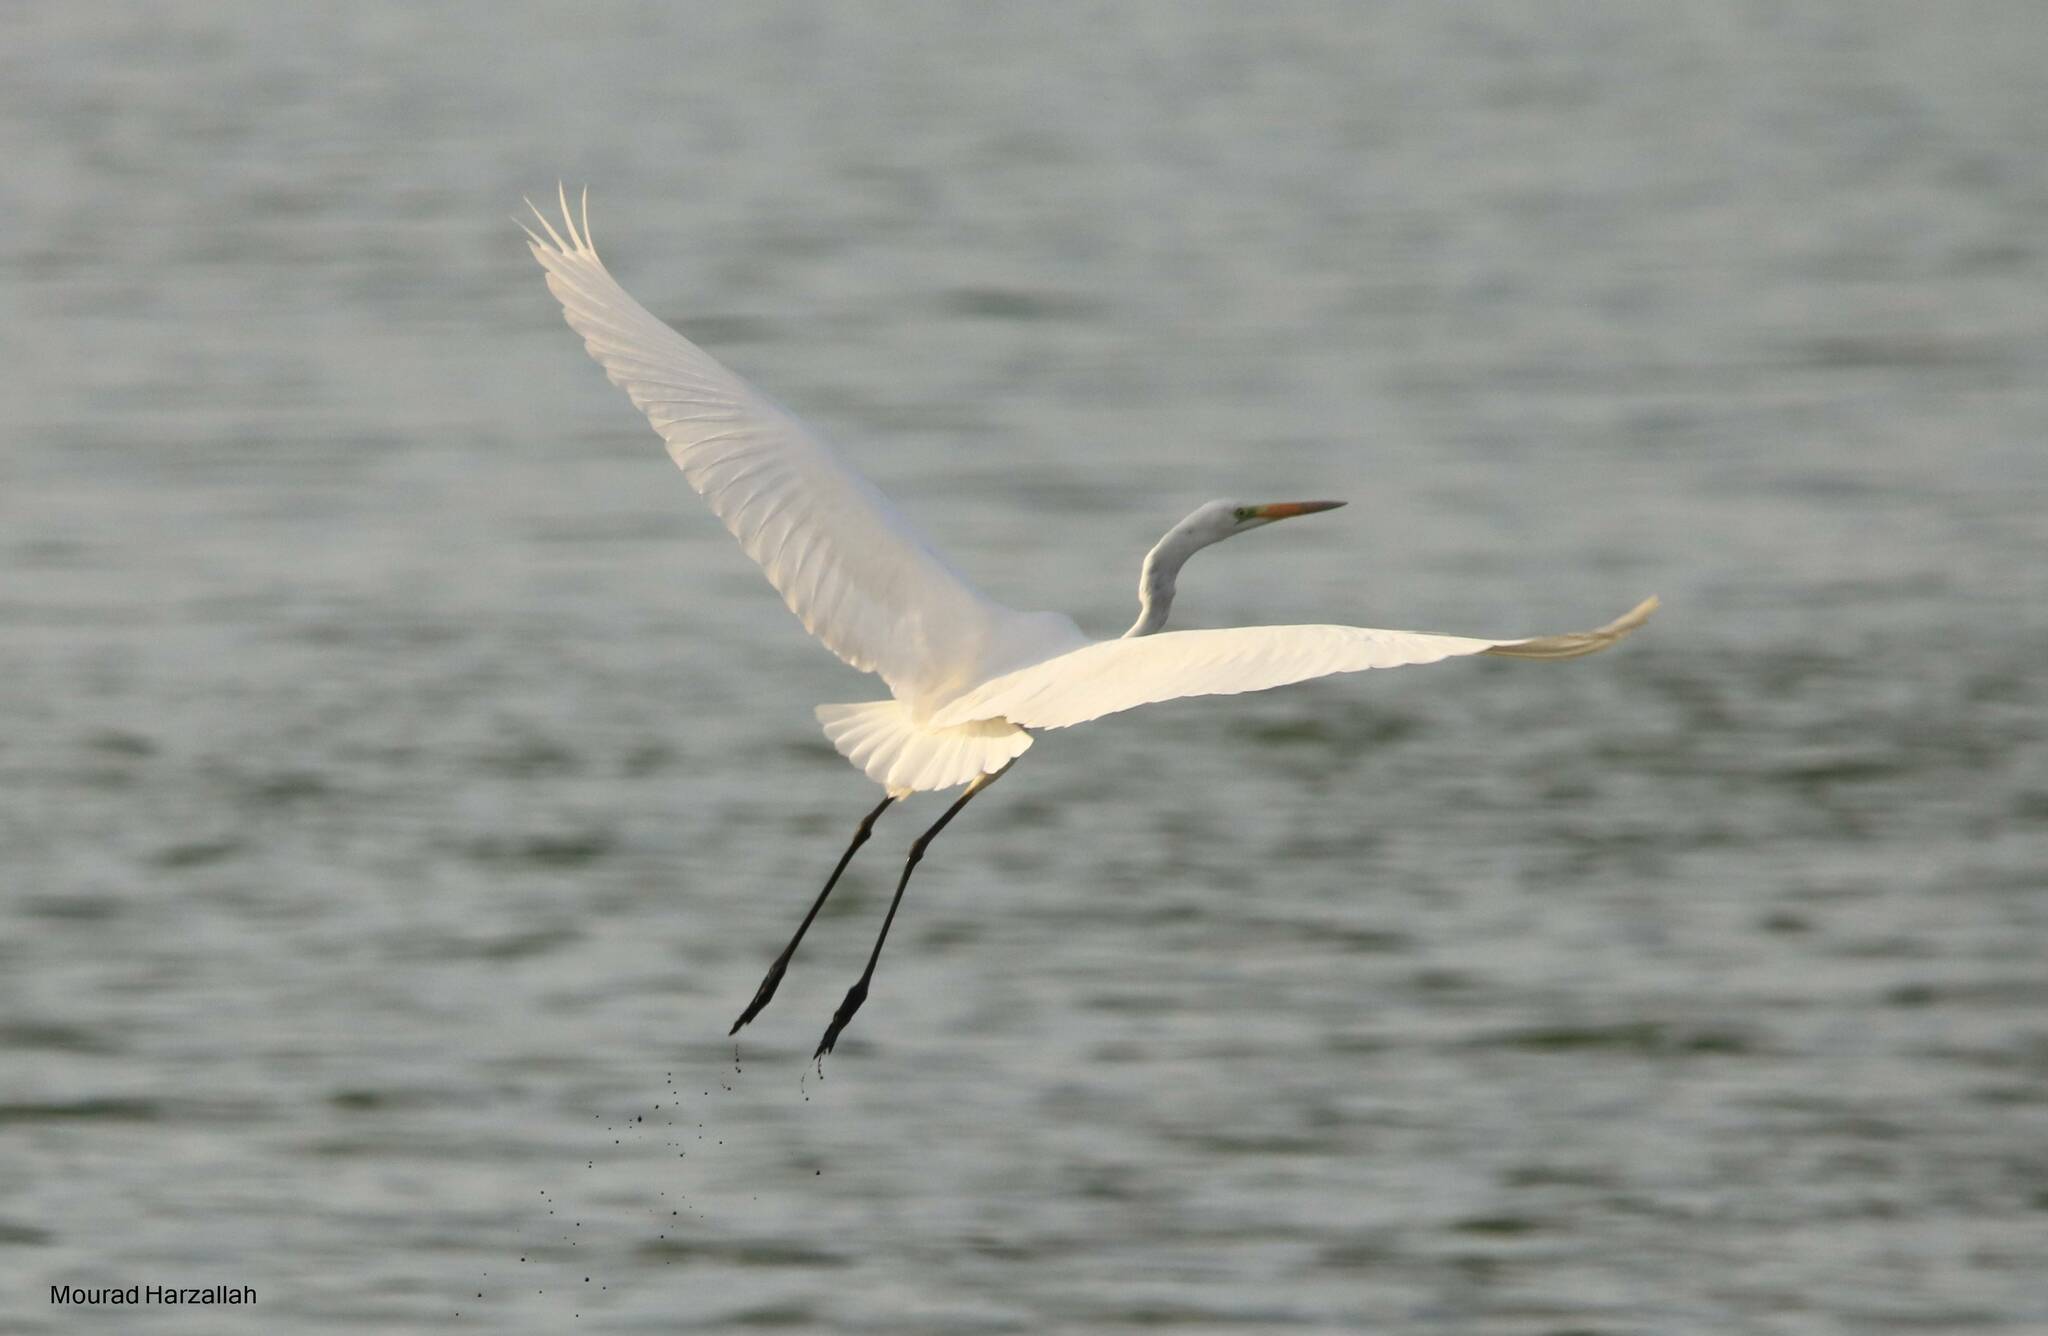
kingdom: Animalia
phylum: Chordata
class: Aves
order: Pelecaniformes
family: Ardeidae
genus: Ardea
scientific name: Ardea alba
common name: Great egret
